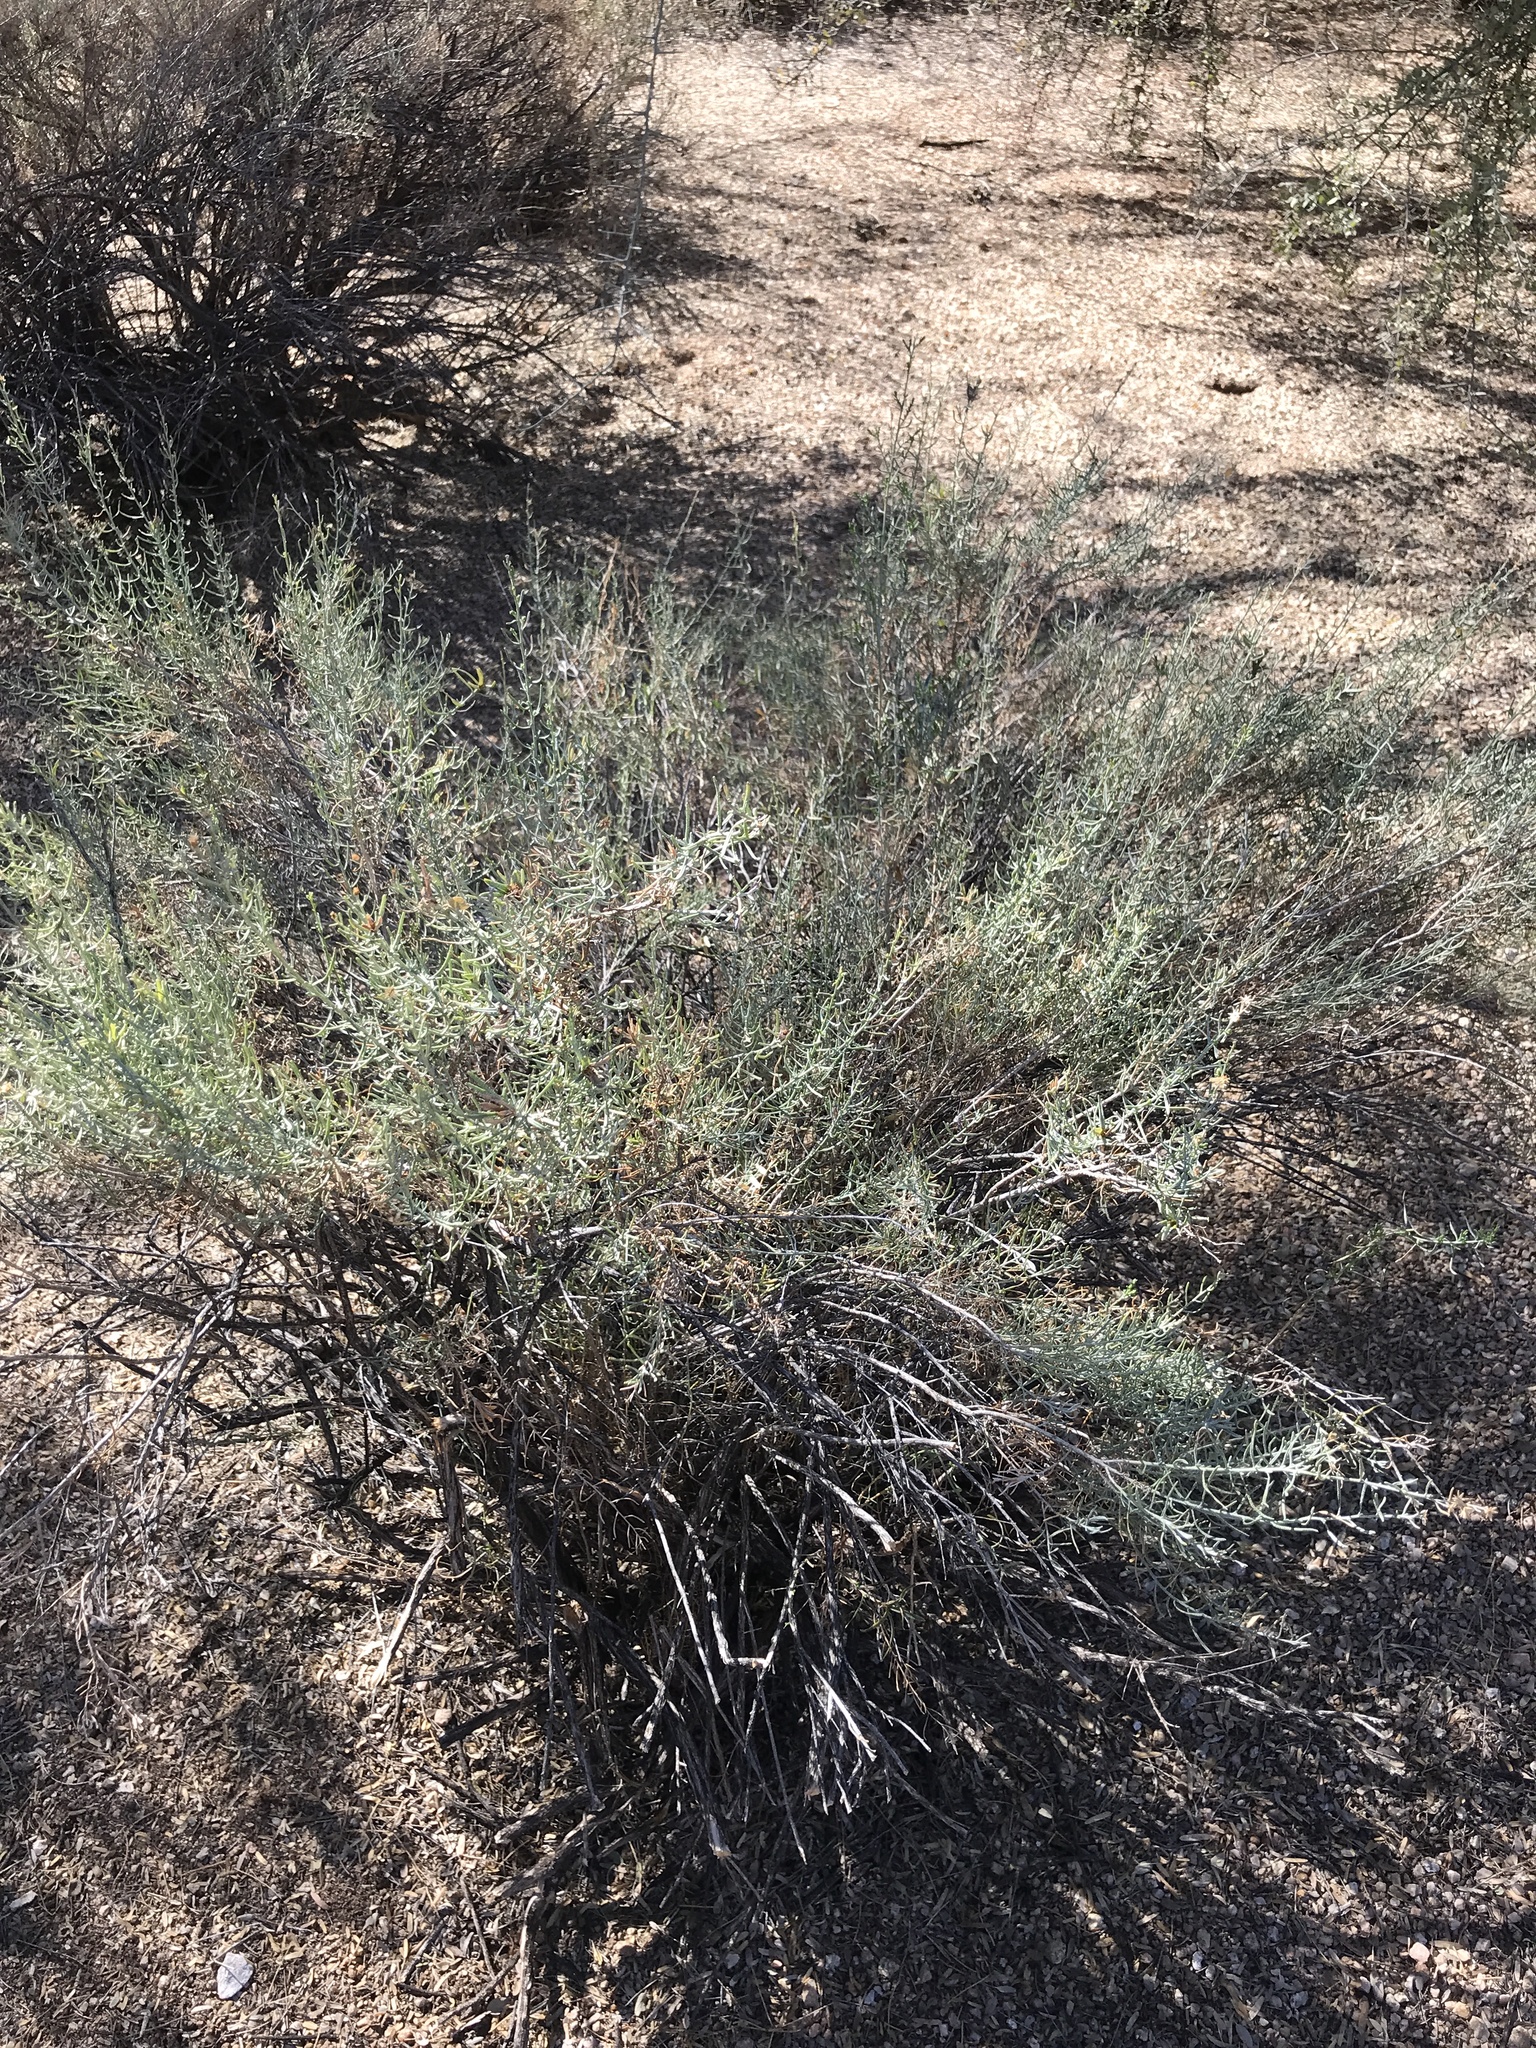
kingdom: Plantae
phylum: Tracheophyta
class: Magnoliopsida
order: Asterales
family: Asteraceae
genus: Ericameria
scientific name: Ericameria laricifolia
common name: Turpentine-bush
